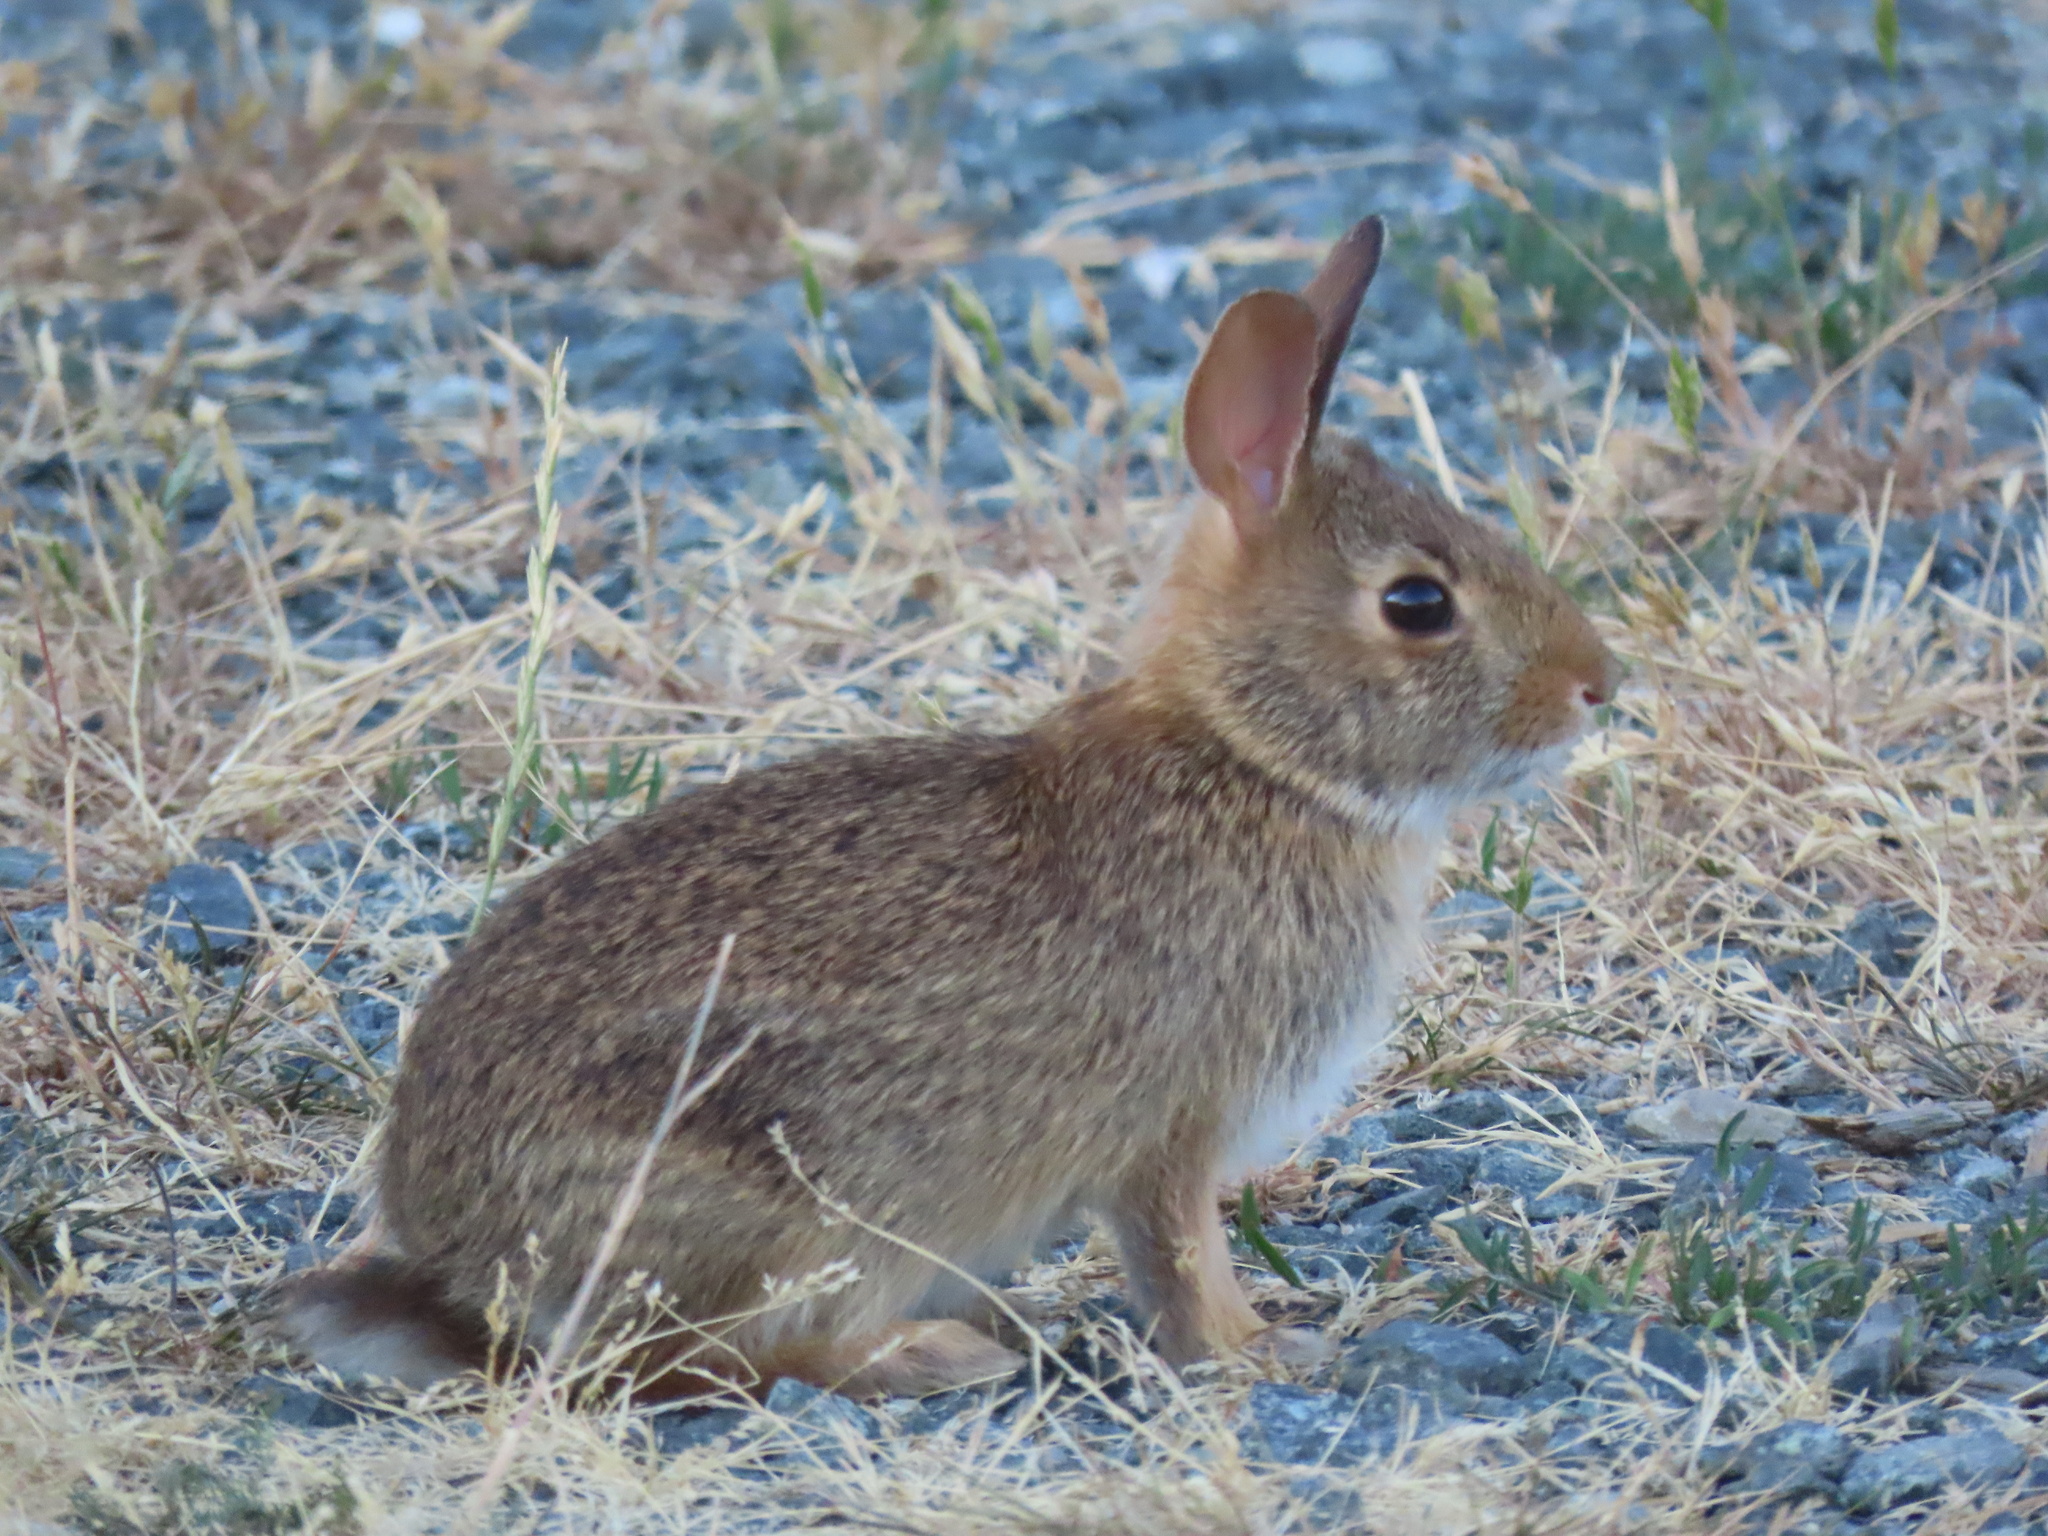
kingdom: Animalia
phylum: Chordata
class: Mammalia
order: Lagomorpha
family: Leporidae
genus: Sylvilagus
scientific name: Sylvilagus floridanus
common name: Eastern cottontail
